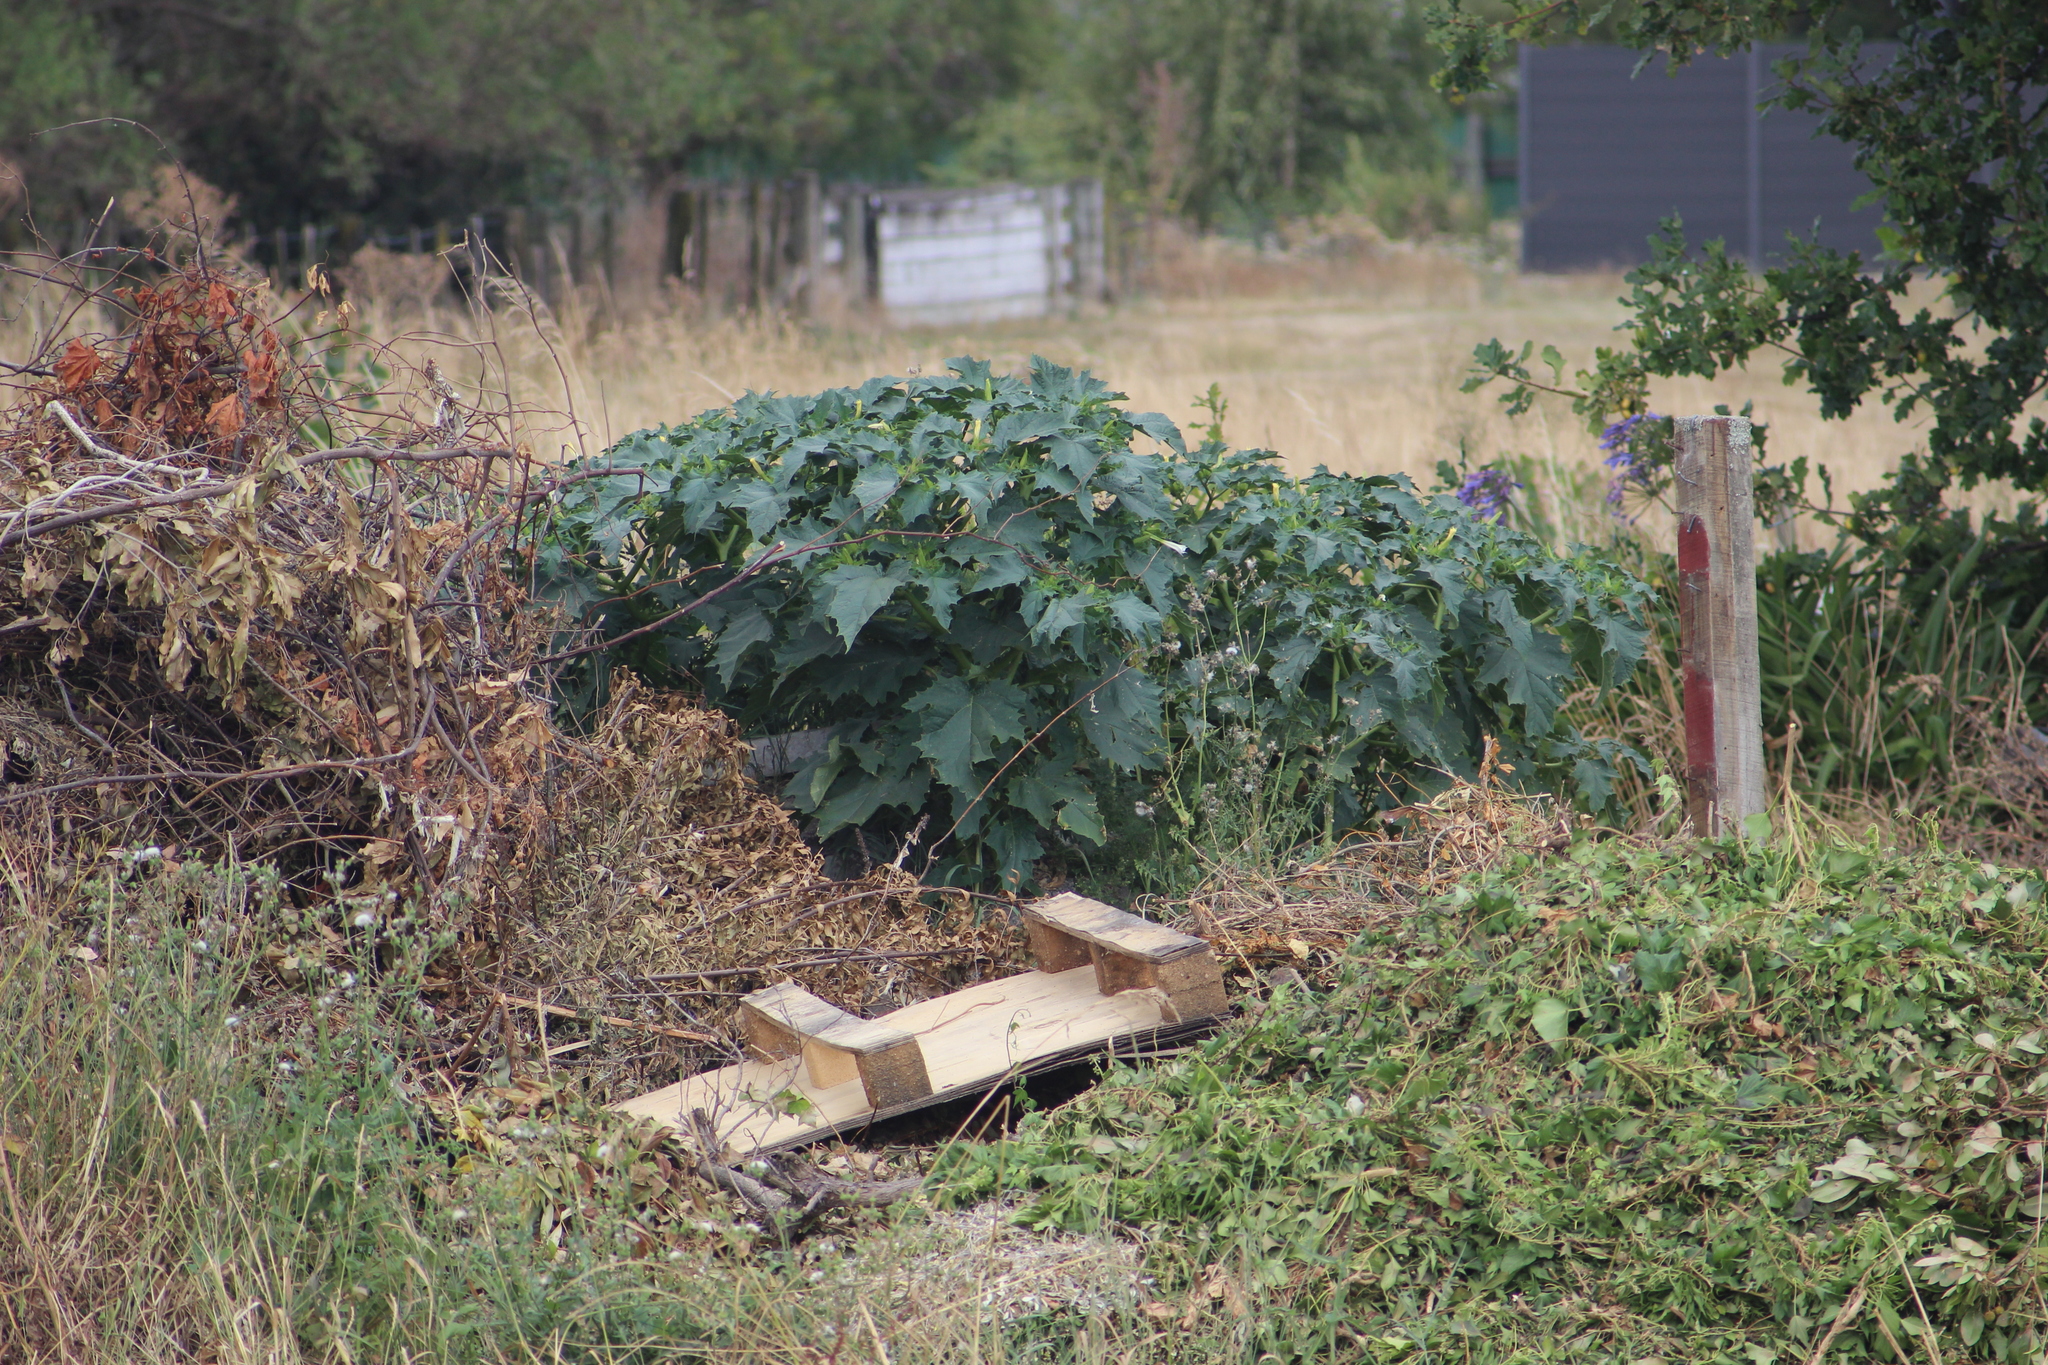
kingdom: Plantae
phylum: Tracheophyta
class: Magnoliopsida
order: Solanales
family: Solanaceae
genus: Datura
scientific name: Datura stramonium
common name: Thorn-apple
